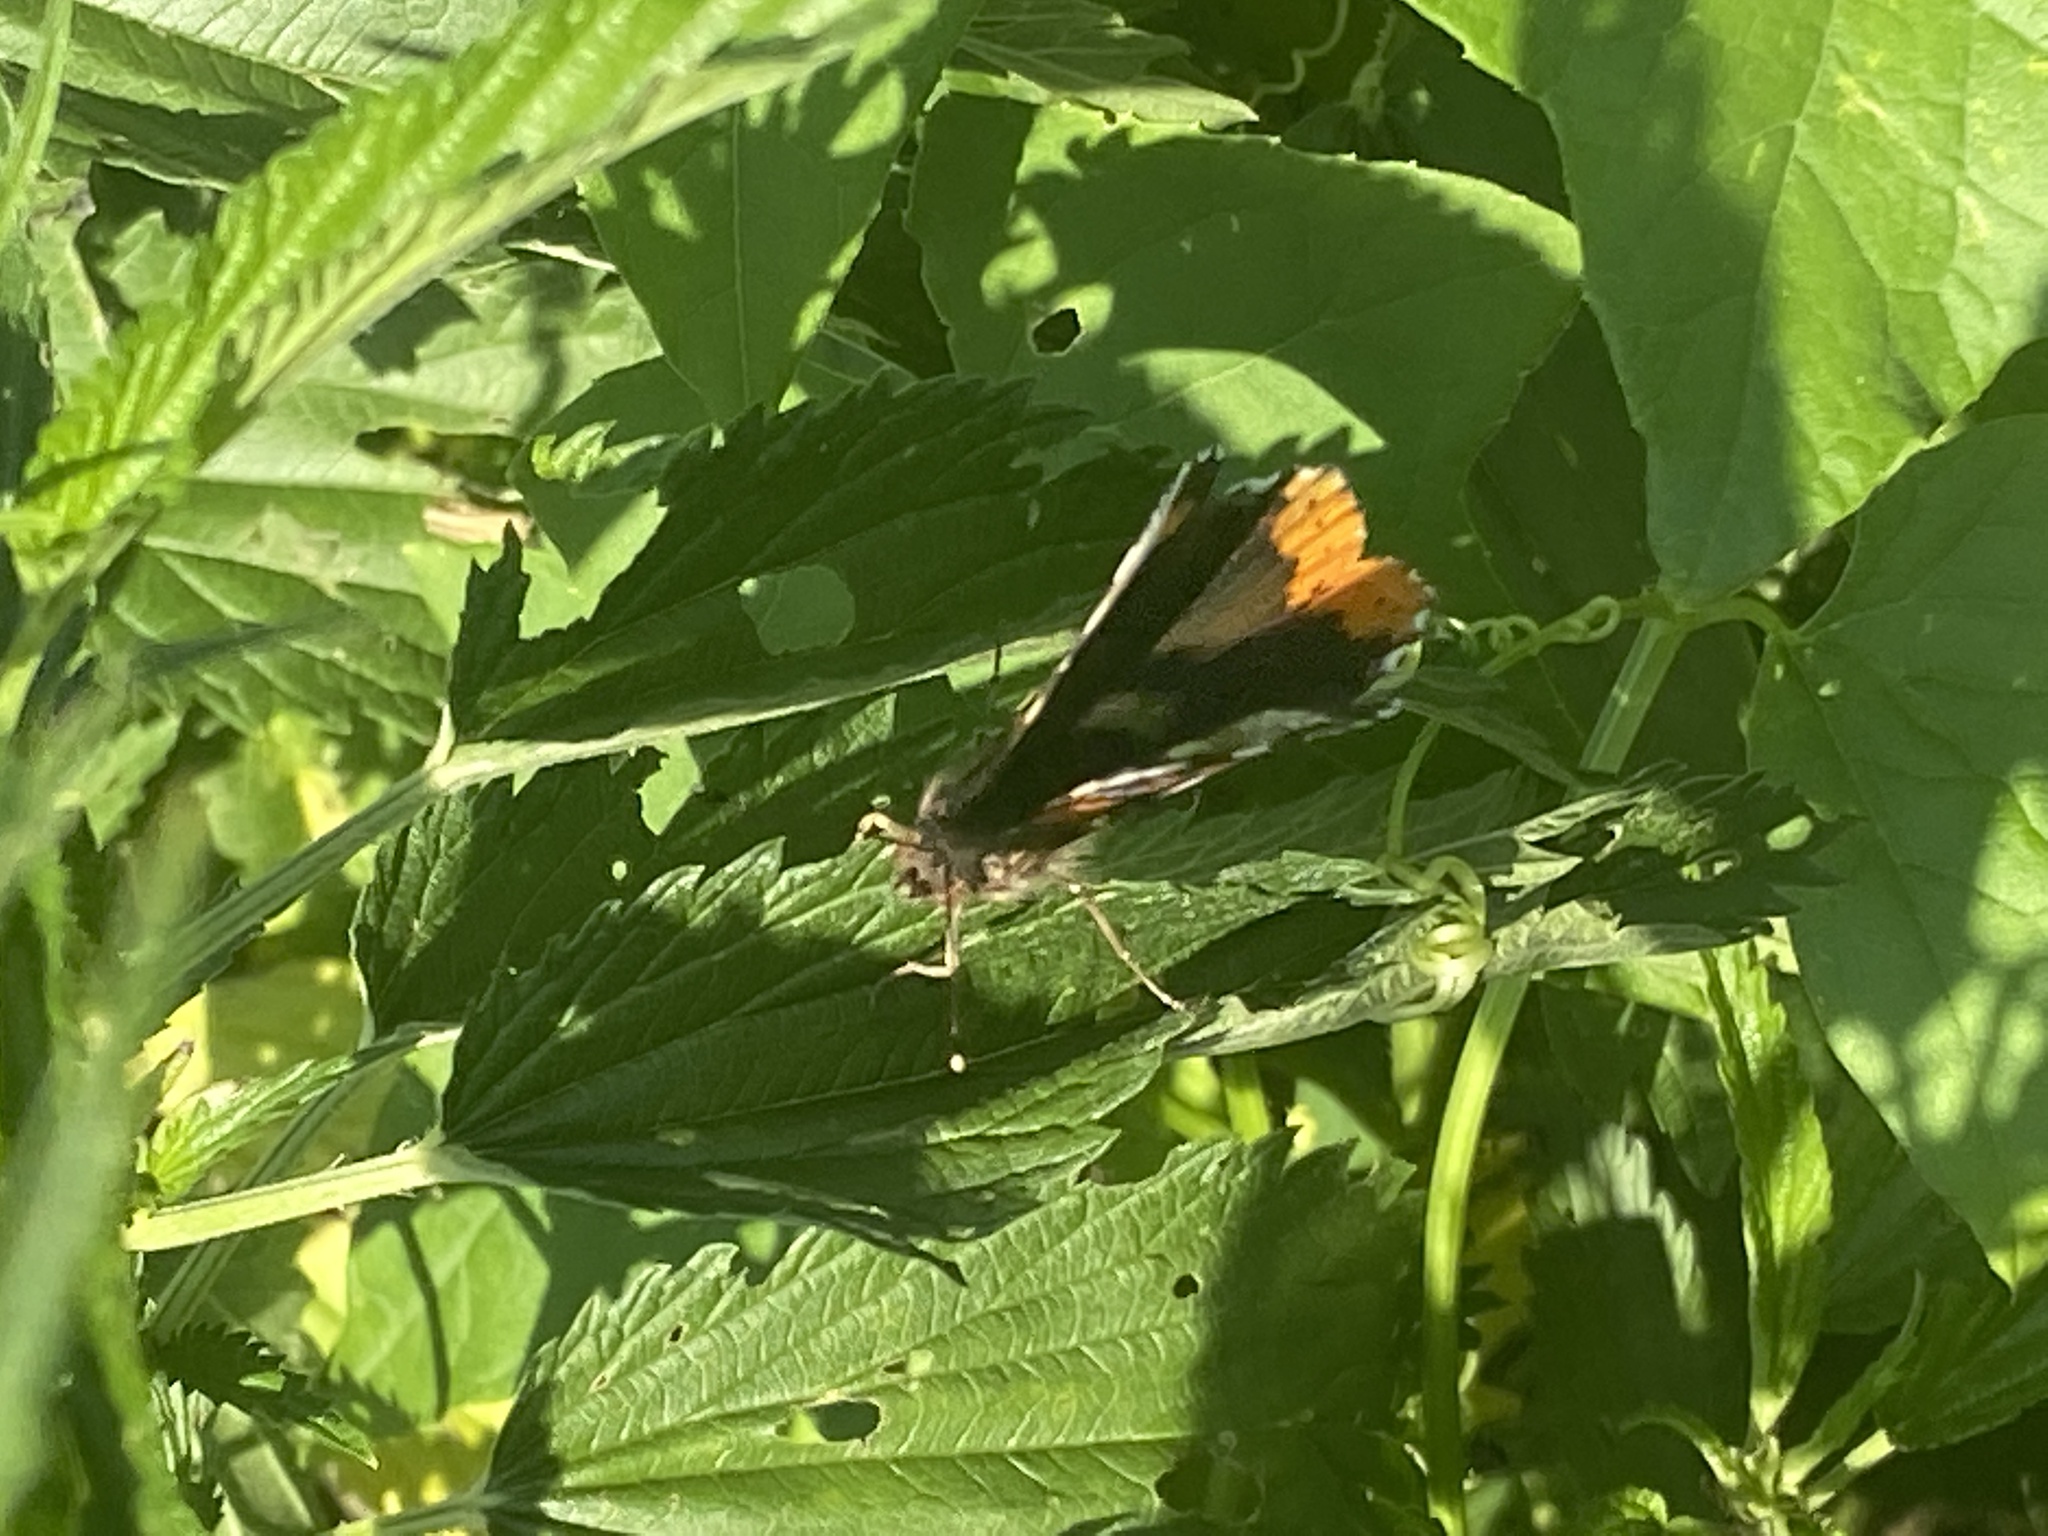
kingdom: Animalia
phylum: Arthropoda
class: Insecta
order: Lepidoptera
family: Nymphalidae
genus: Vanessa
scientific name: Vanessa atalanta
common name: Red admiral
